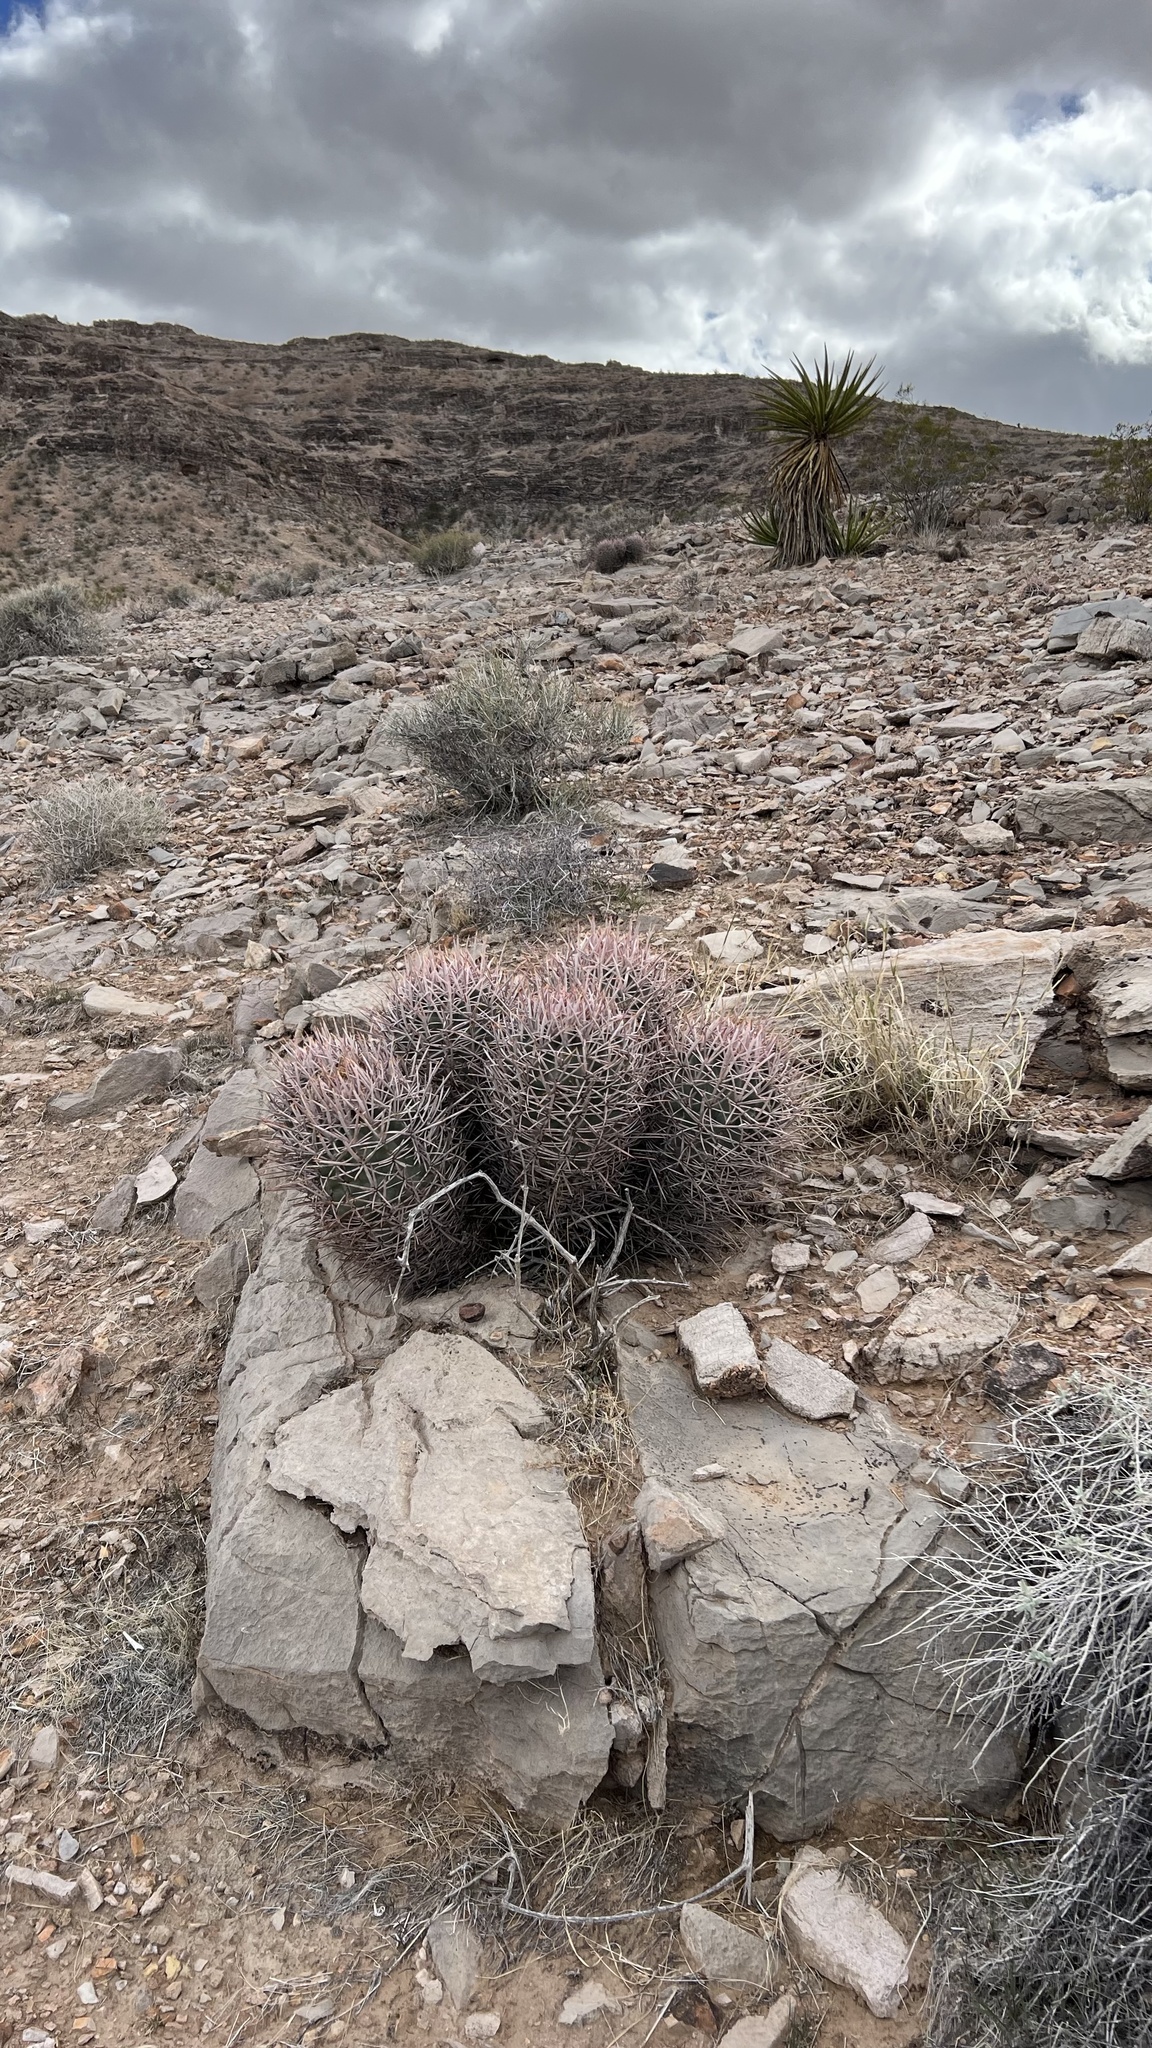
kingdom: Plantae
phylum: Tracheophyta
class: Magnoliopsida
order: Caryophyllales
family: Cactaceae
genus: Echinocactus
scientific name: Echinocactus polycephalus
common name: Cottontop cactus
